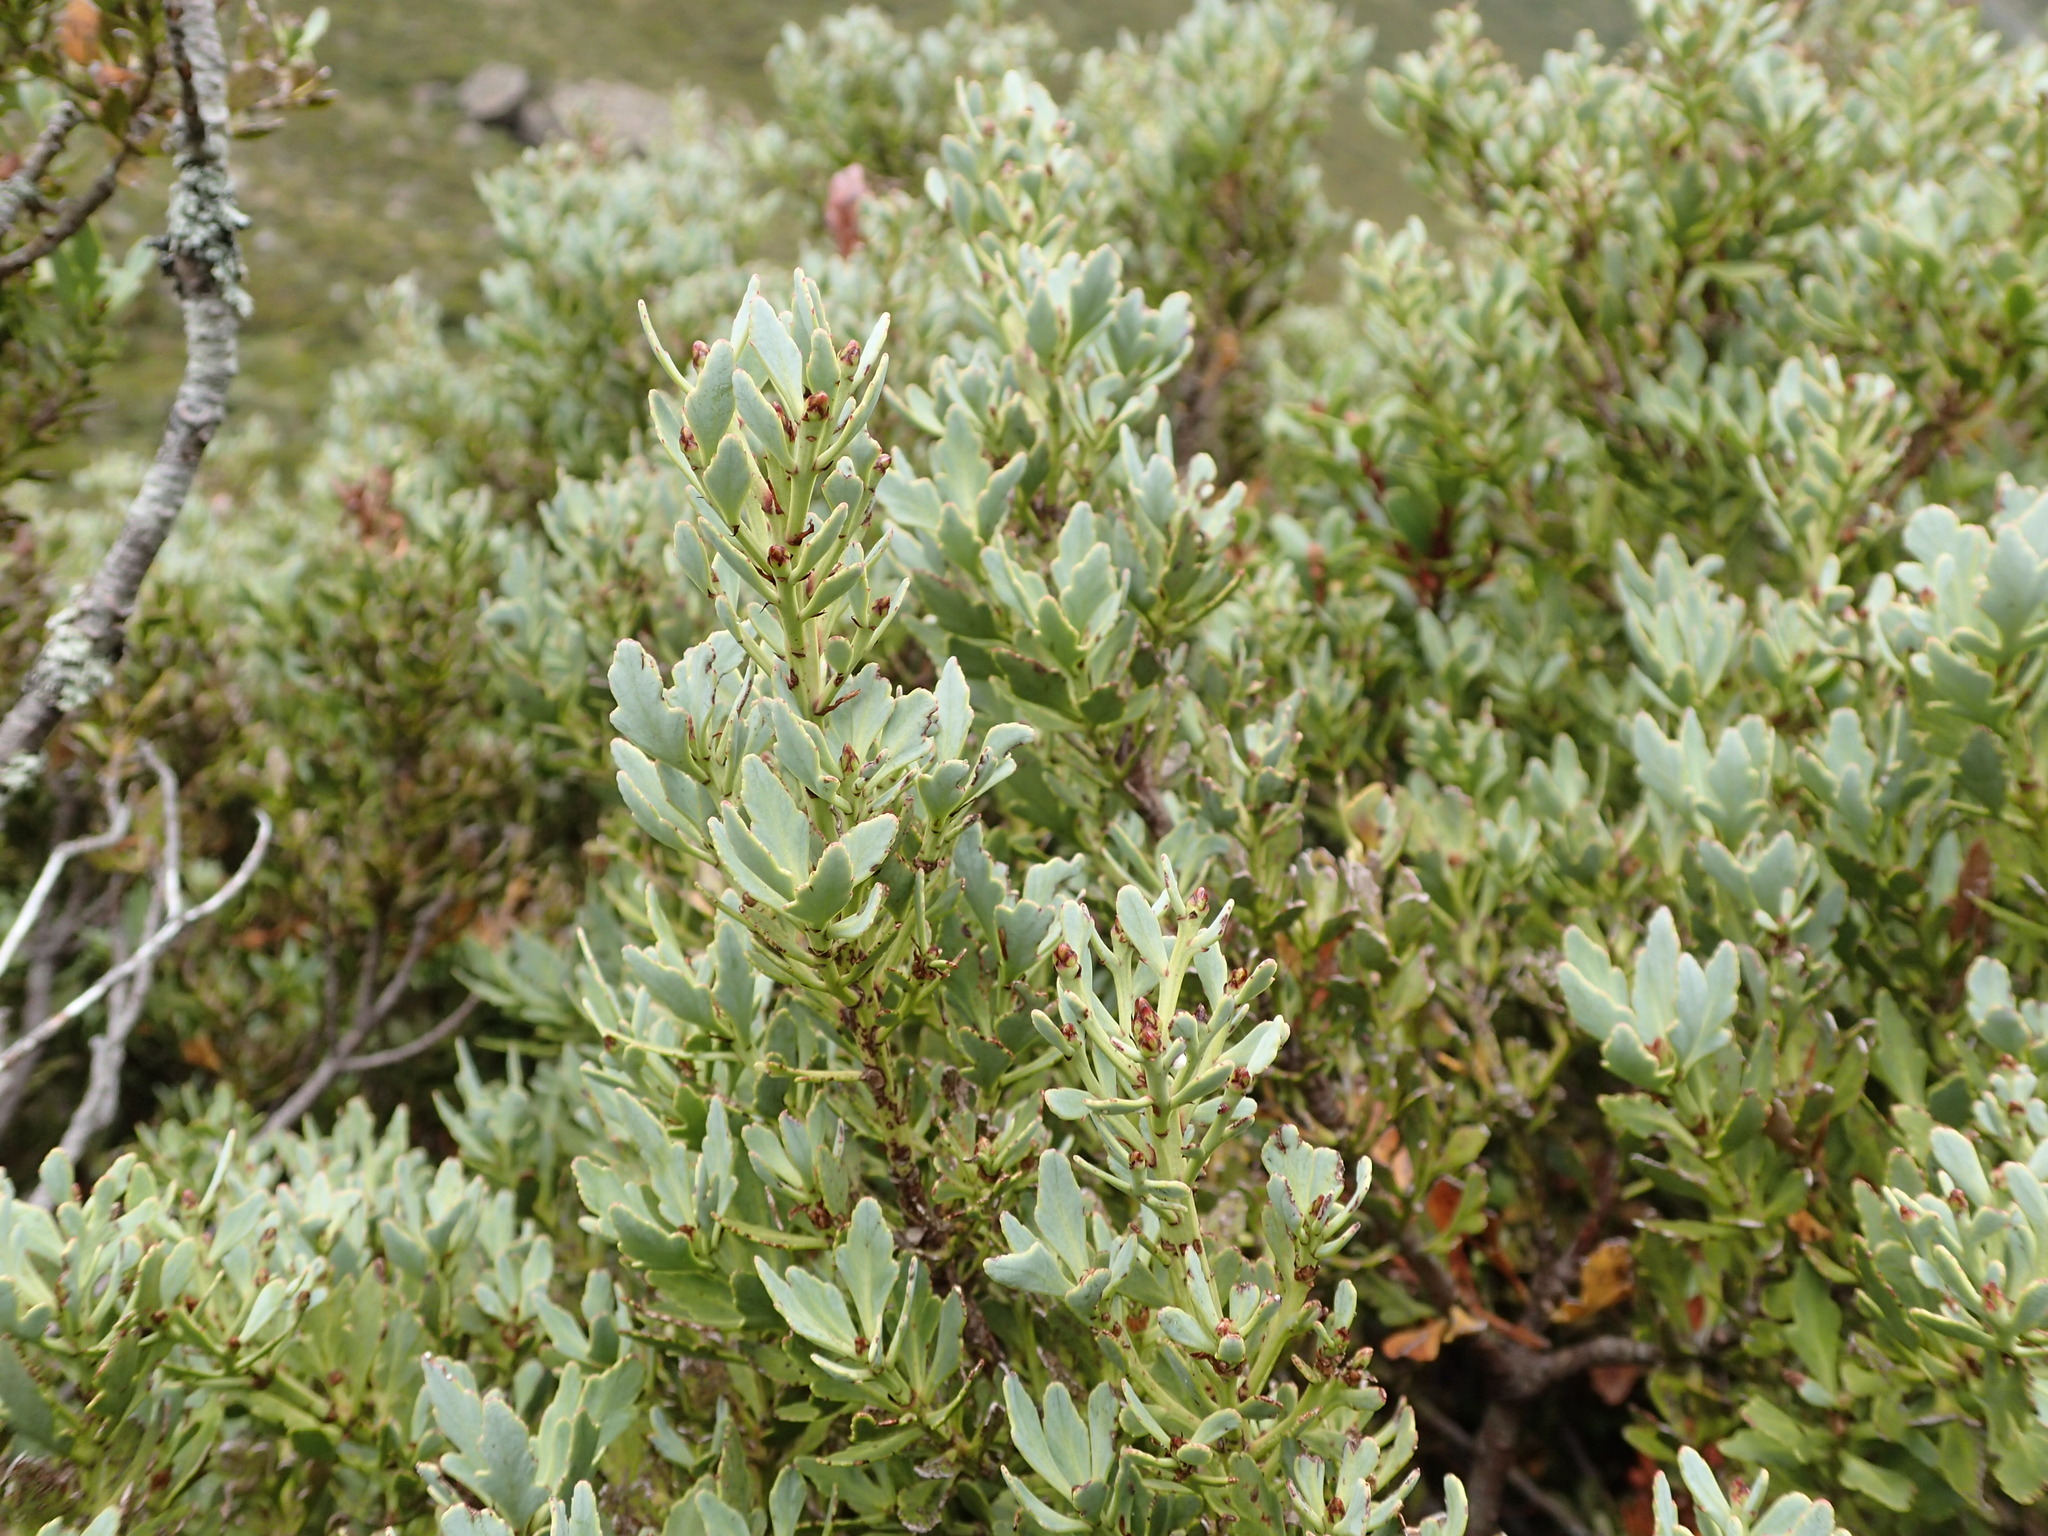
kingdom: Plantae
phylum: Tracheophyta
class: Pinopsida
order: Pinales
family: Phyllocladaceae
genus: Phyllocladus
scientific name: Phyllocladus trichomanoides
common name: Celery pine
